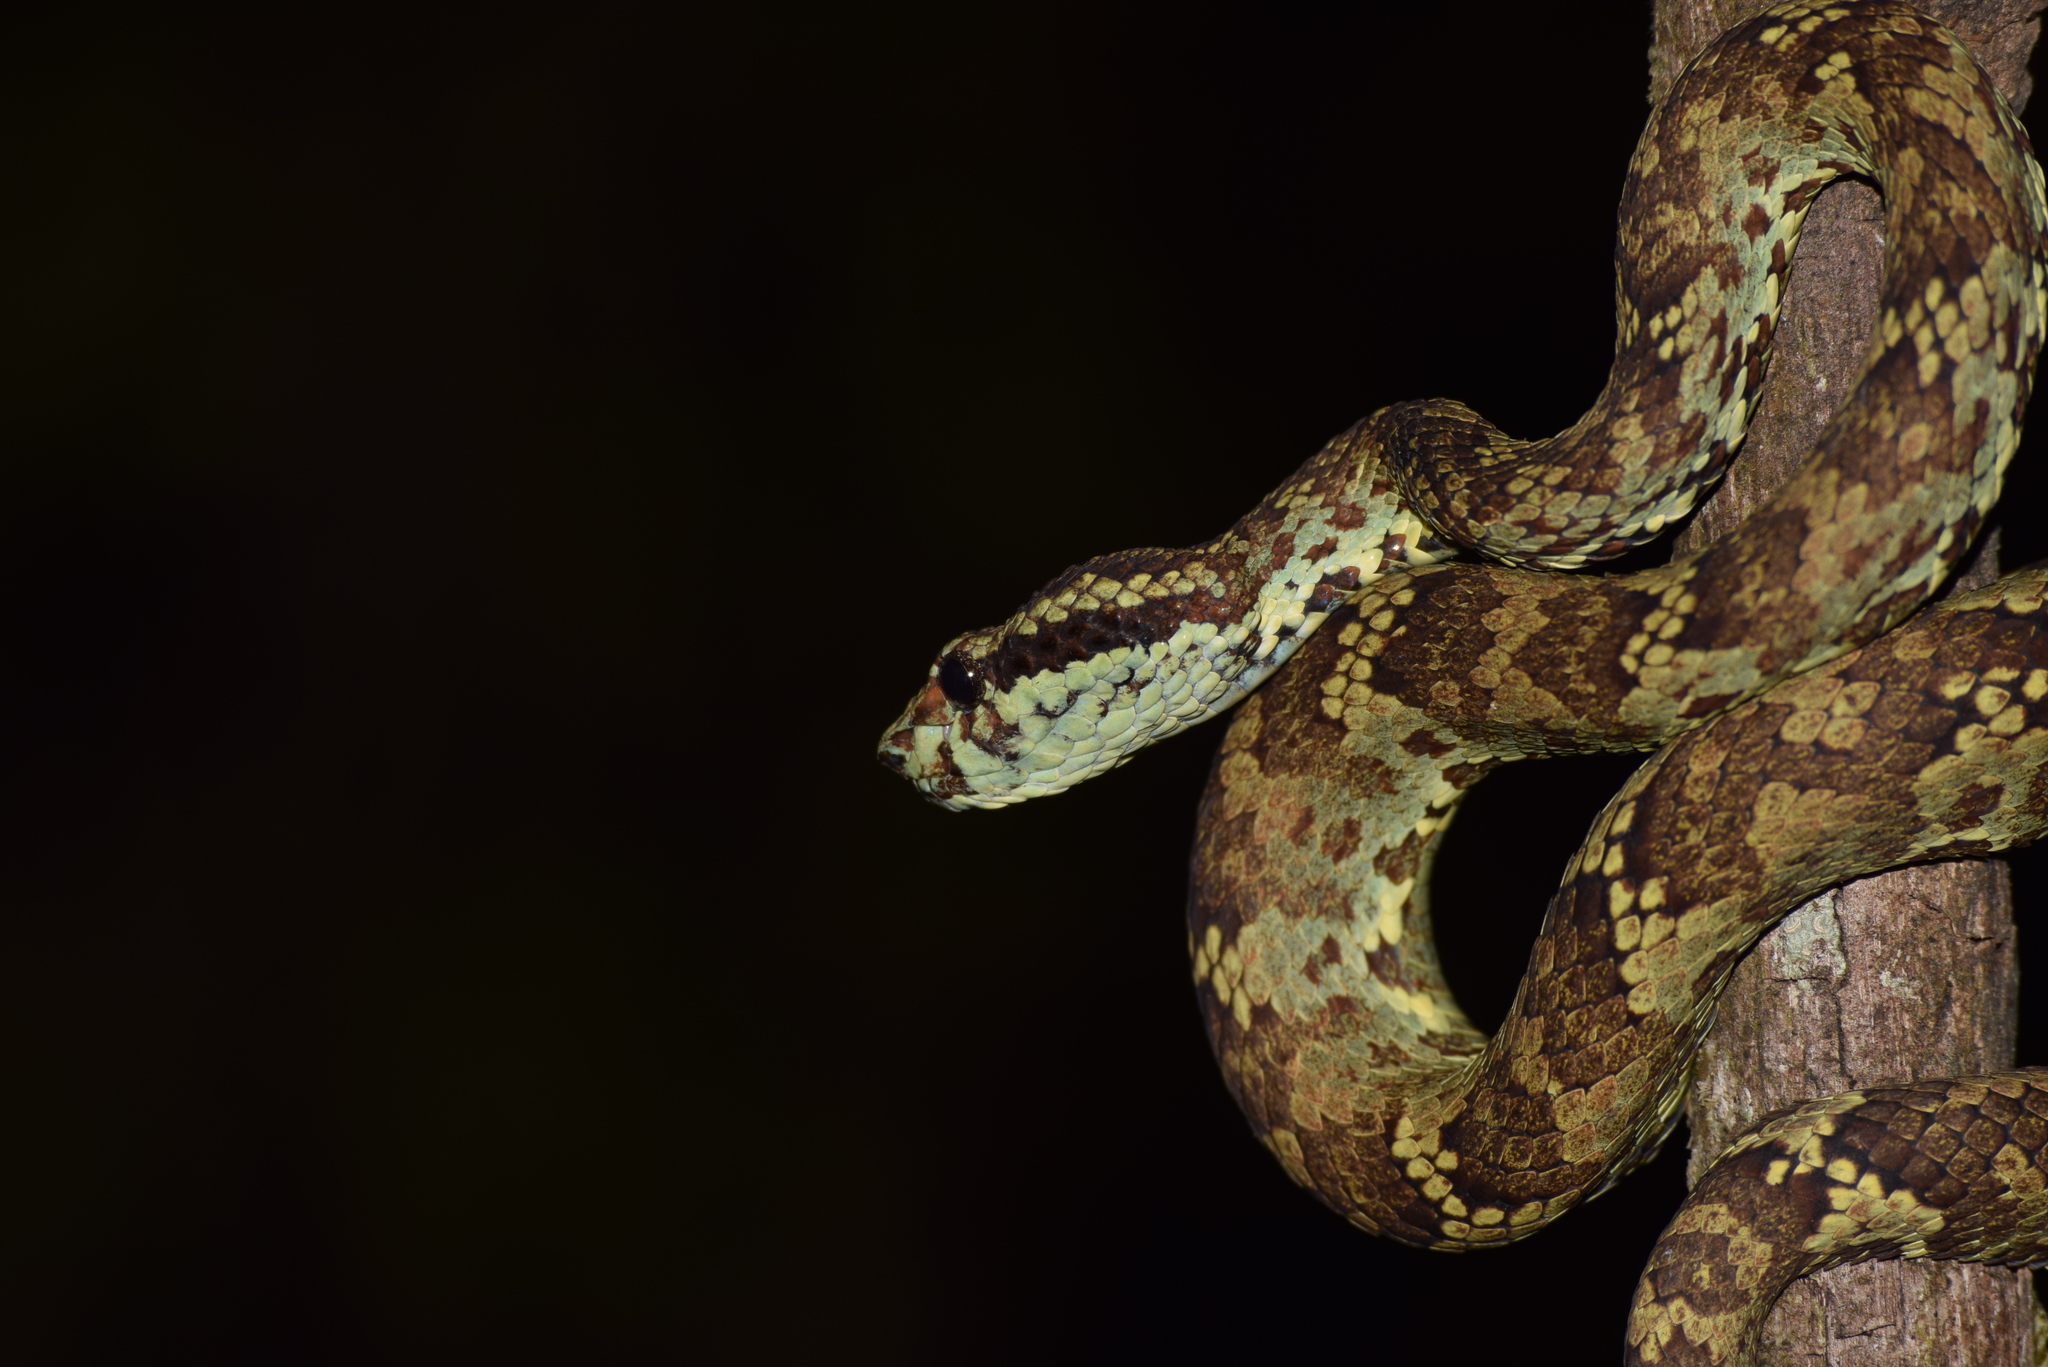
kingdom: Animalia
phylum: Chordata
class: Squamata
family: Viperidae
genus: Craspedocephalus
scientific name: Craspedocephalus malabaricus
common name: Malabarian pit viper
